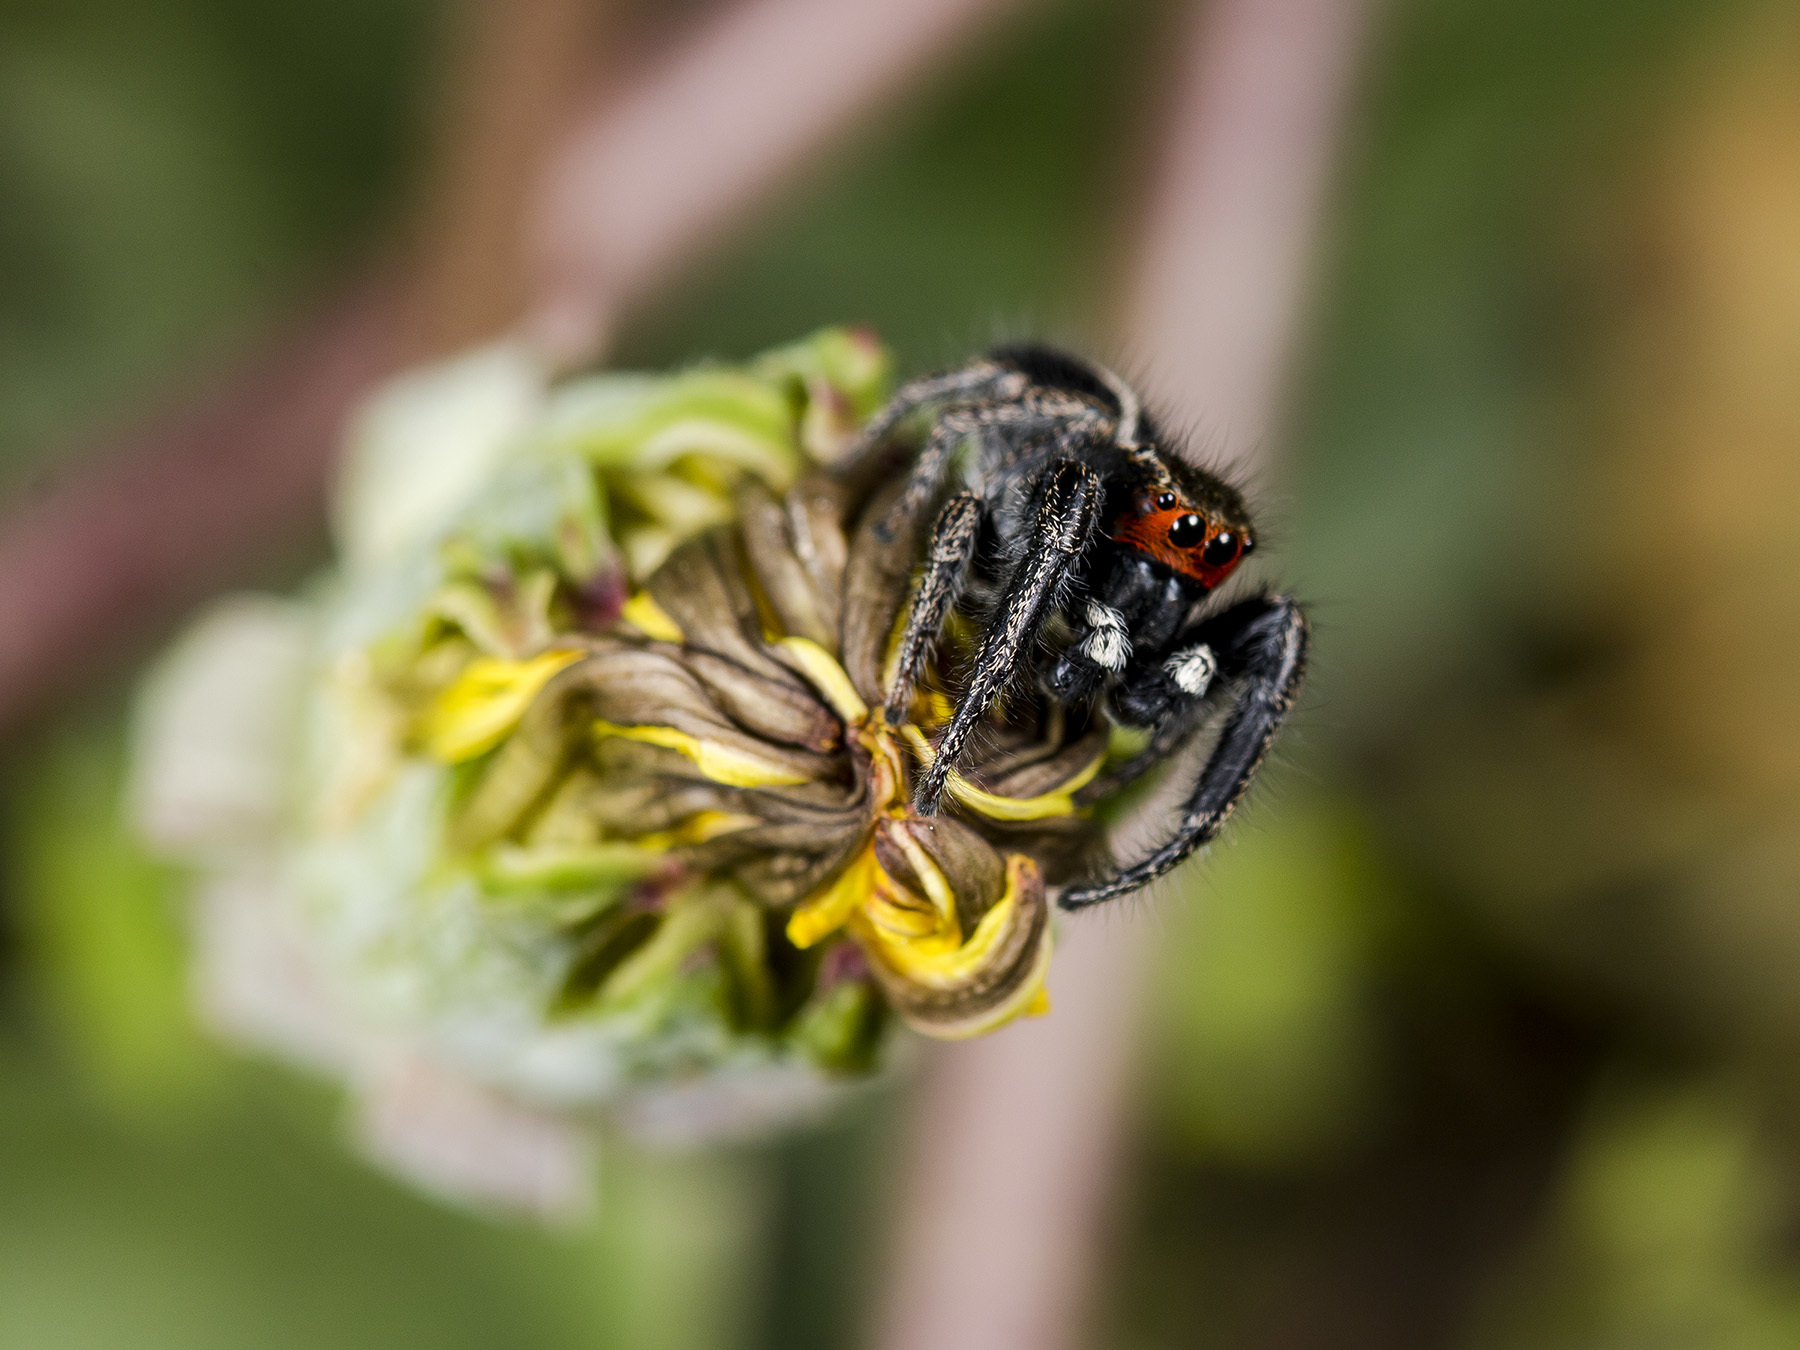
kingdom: Animalia
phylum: Arthropoda
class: Arachnida
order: Araneae
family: Salticidae
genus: Pellenes
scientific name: Pellenes seriatus
